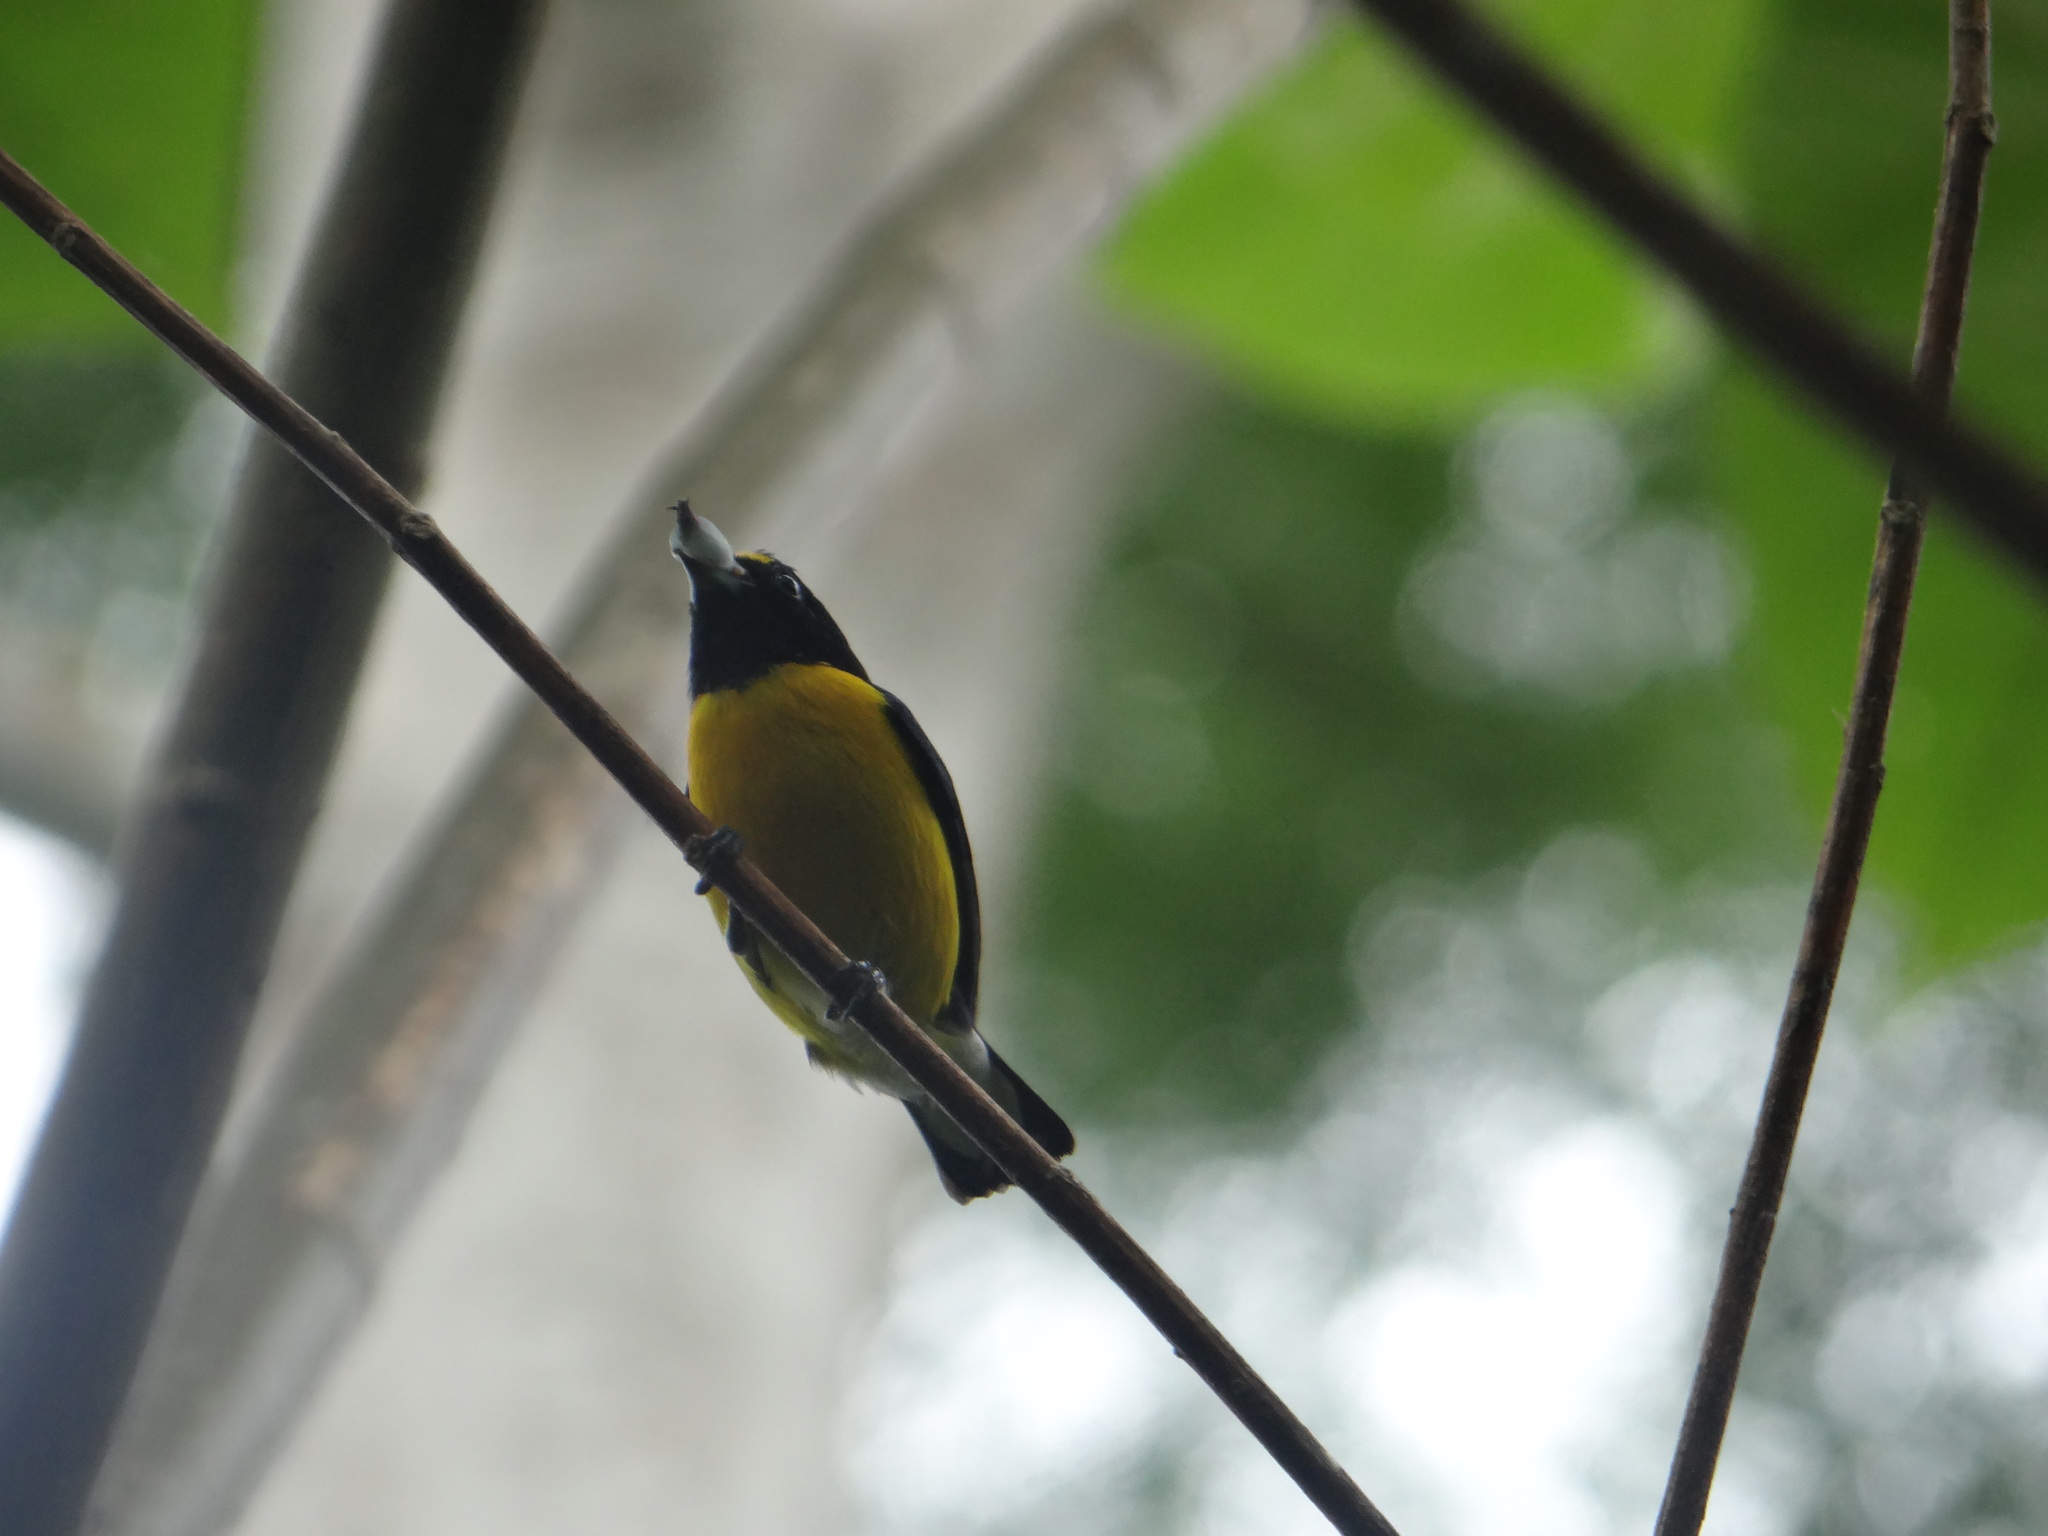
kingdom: Animalia
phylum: Chordata
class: Aves
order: Passeriformes
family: Fringillidae
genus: Euphonia
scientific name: Euphonia minuta
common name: White-vented euphonia
